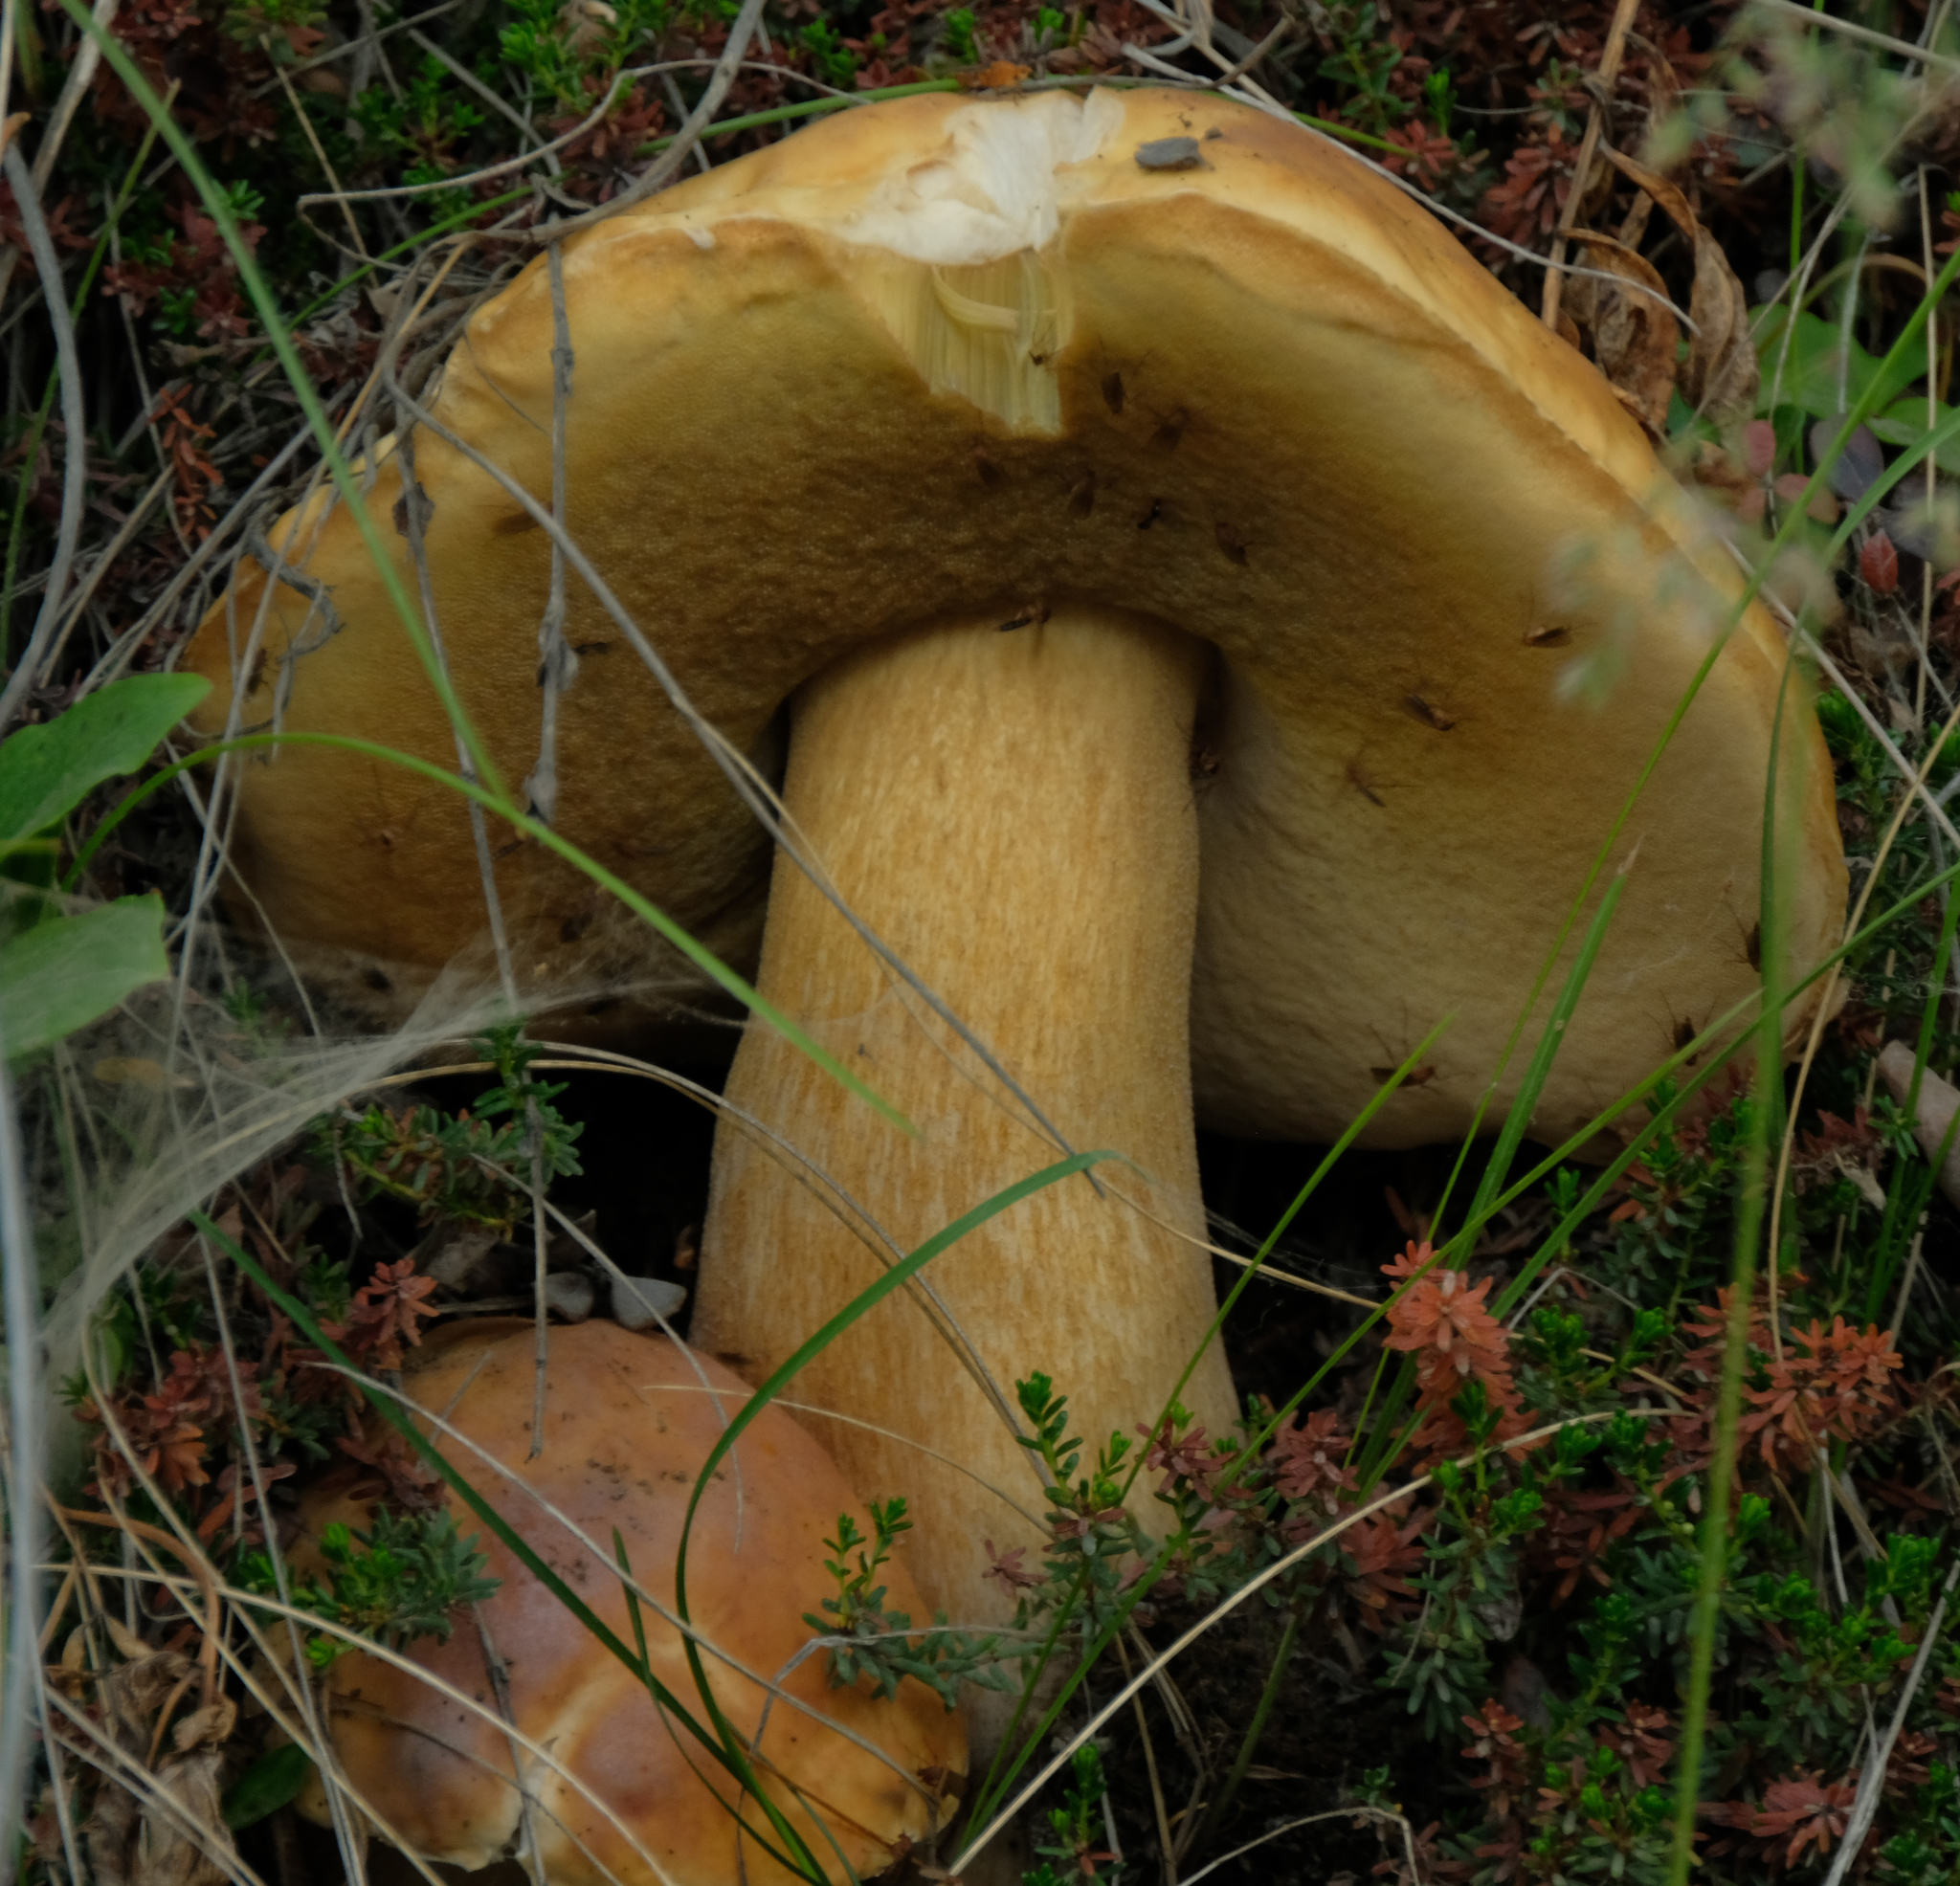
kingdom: Fungi
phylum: Basidiomycota
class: Agaricomycetes
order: Boletales
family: Boletaceae
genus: Boletus
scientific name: Boletus edulis
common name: Cep
